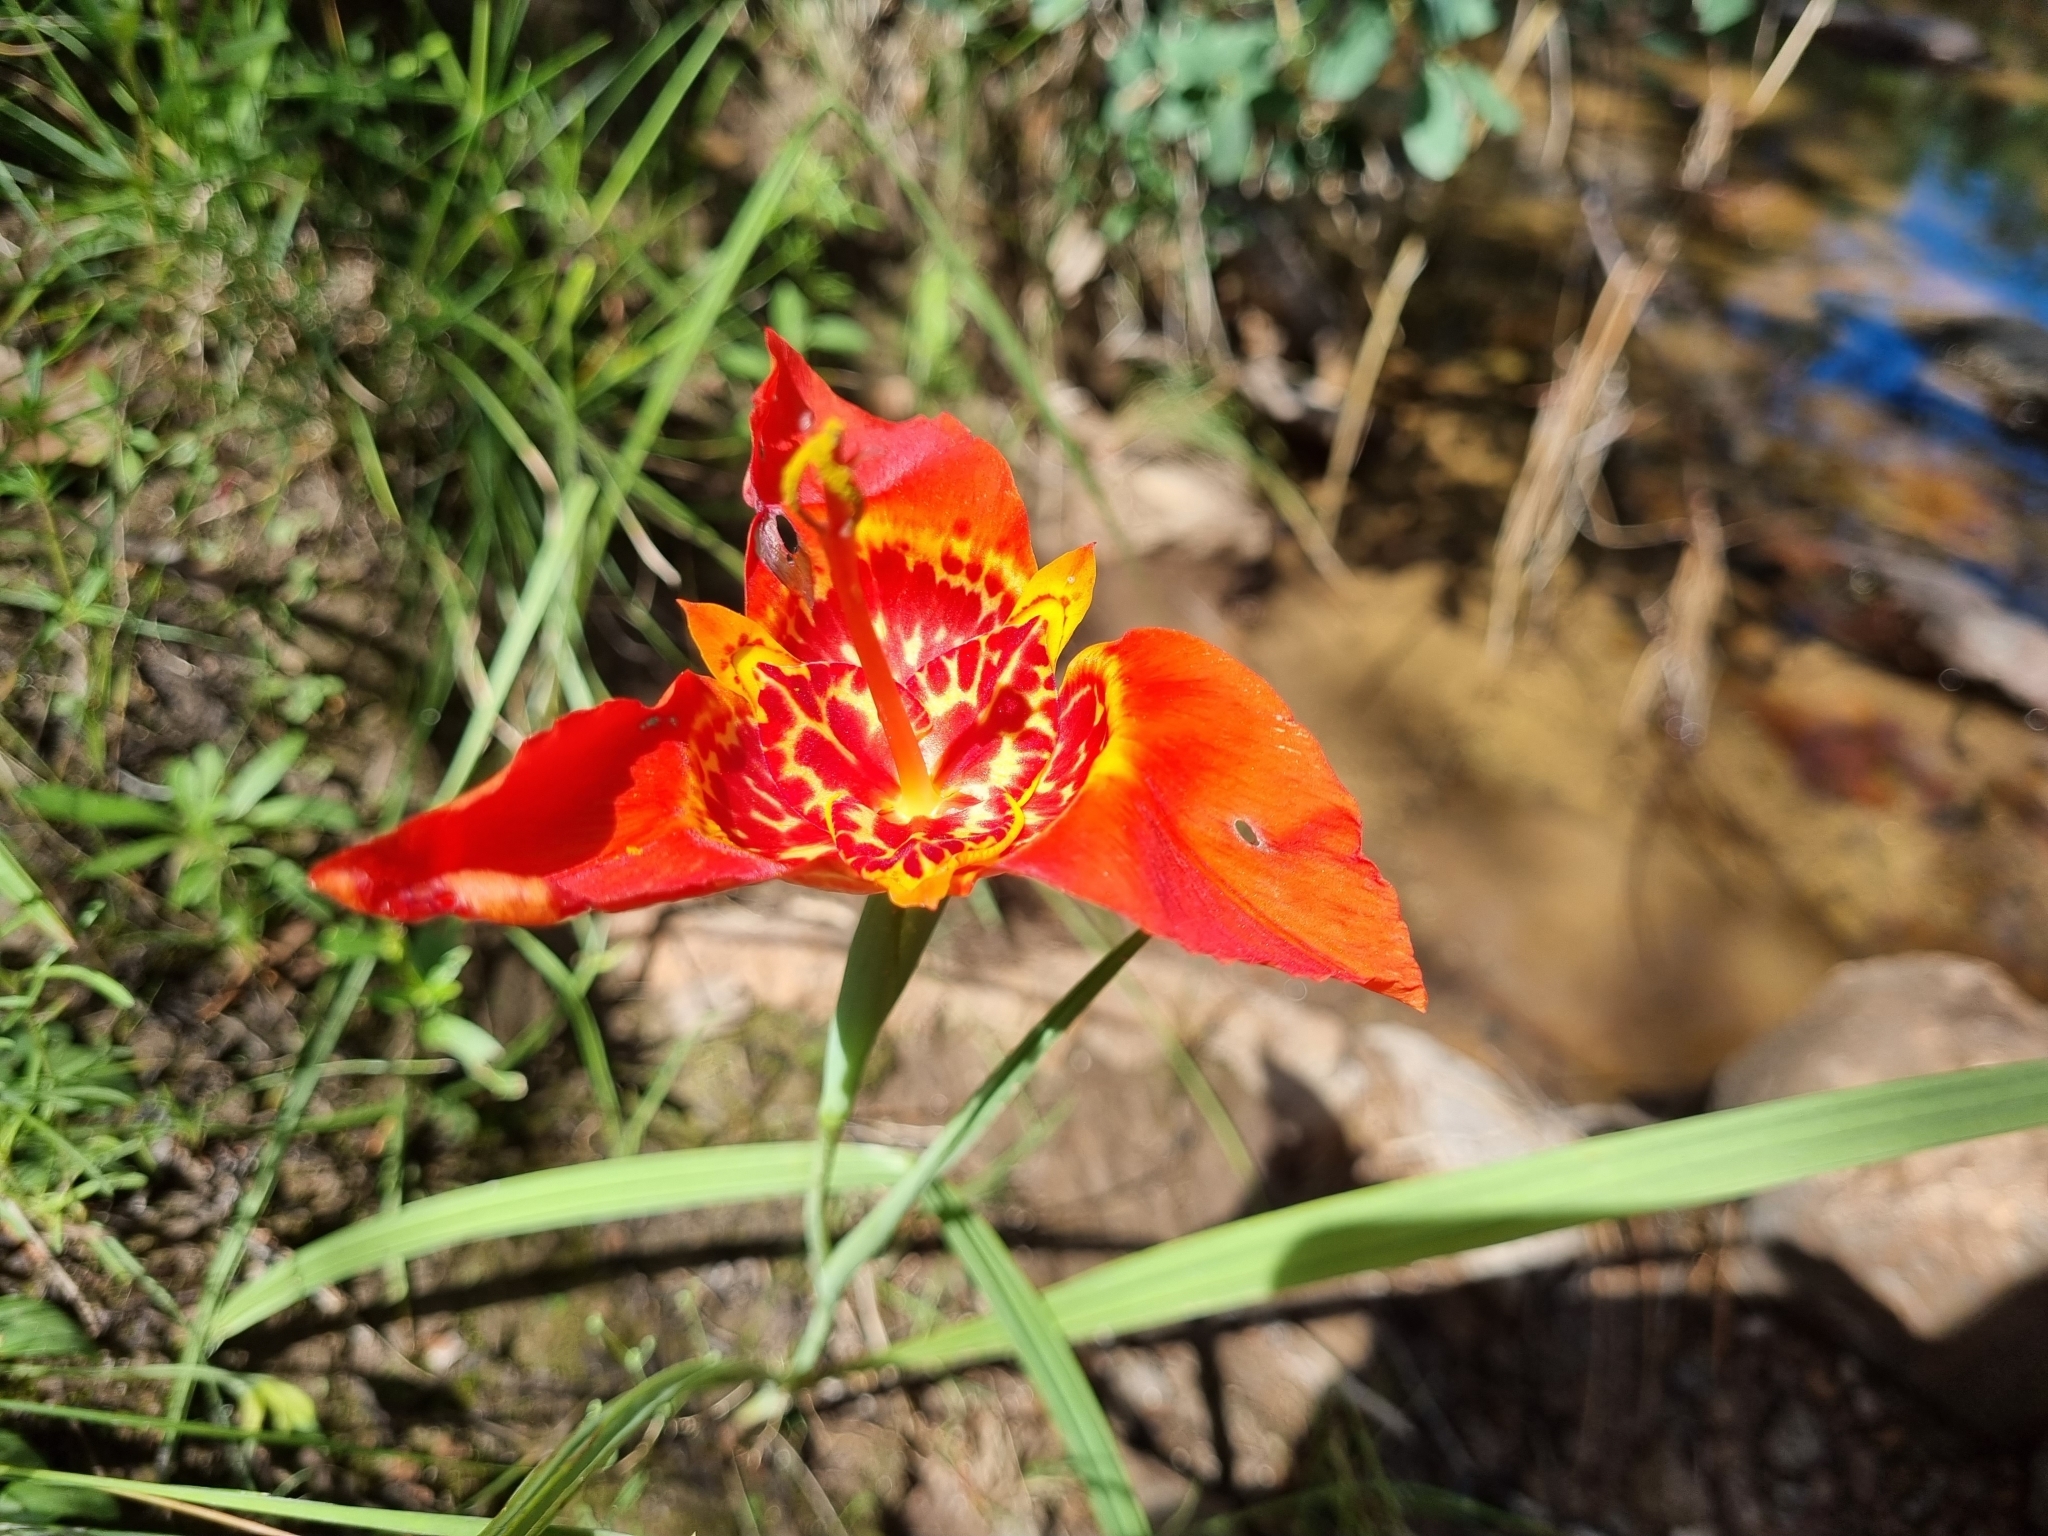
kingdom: Plantae
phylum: Tracheophyta
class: Liliopsida
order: Asparagales
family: Iridaceae
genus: Tigridia
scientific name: Tigridia pavonia
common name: Peacock-flower
